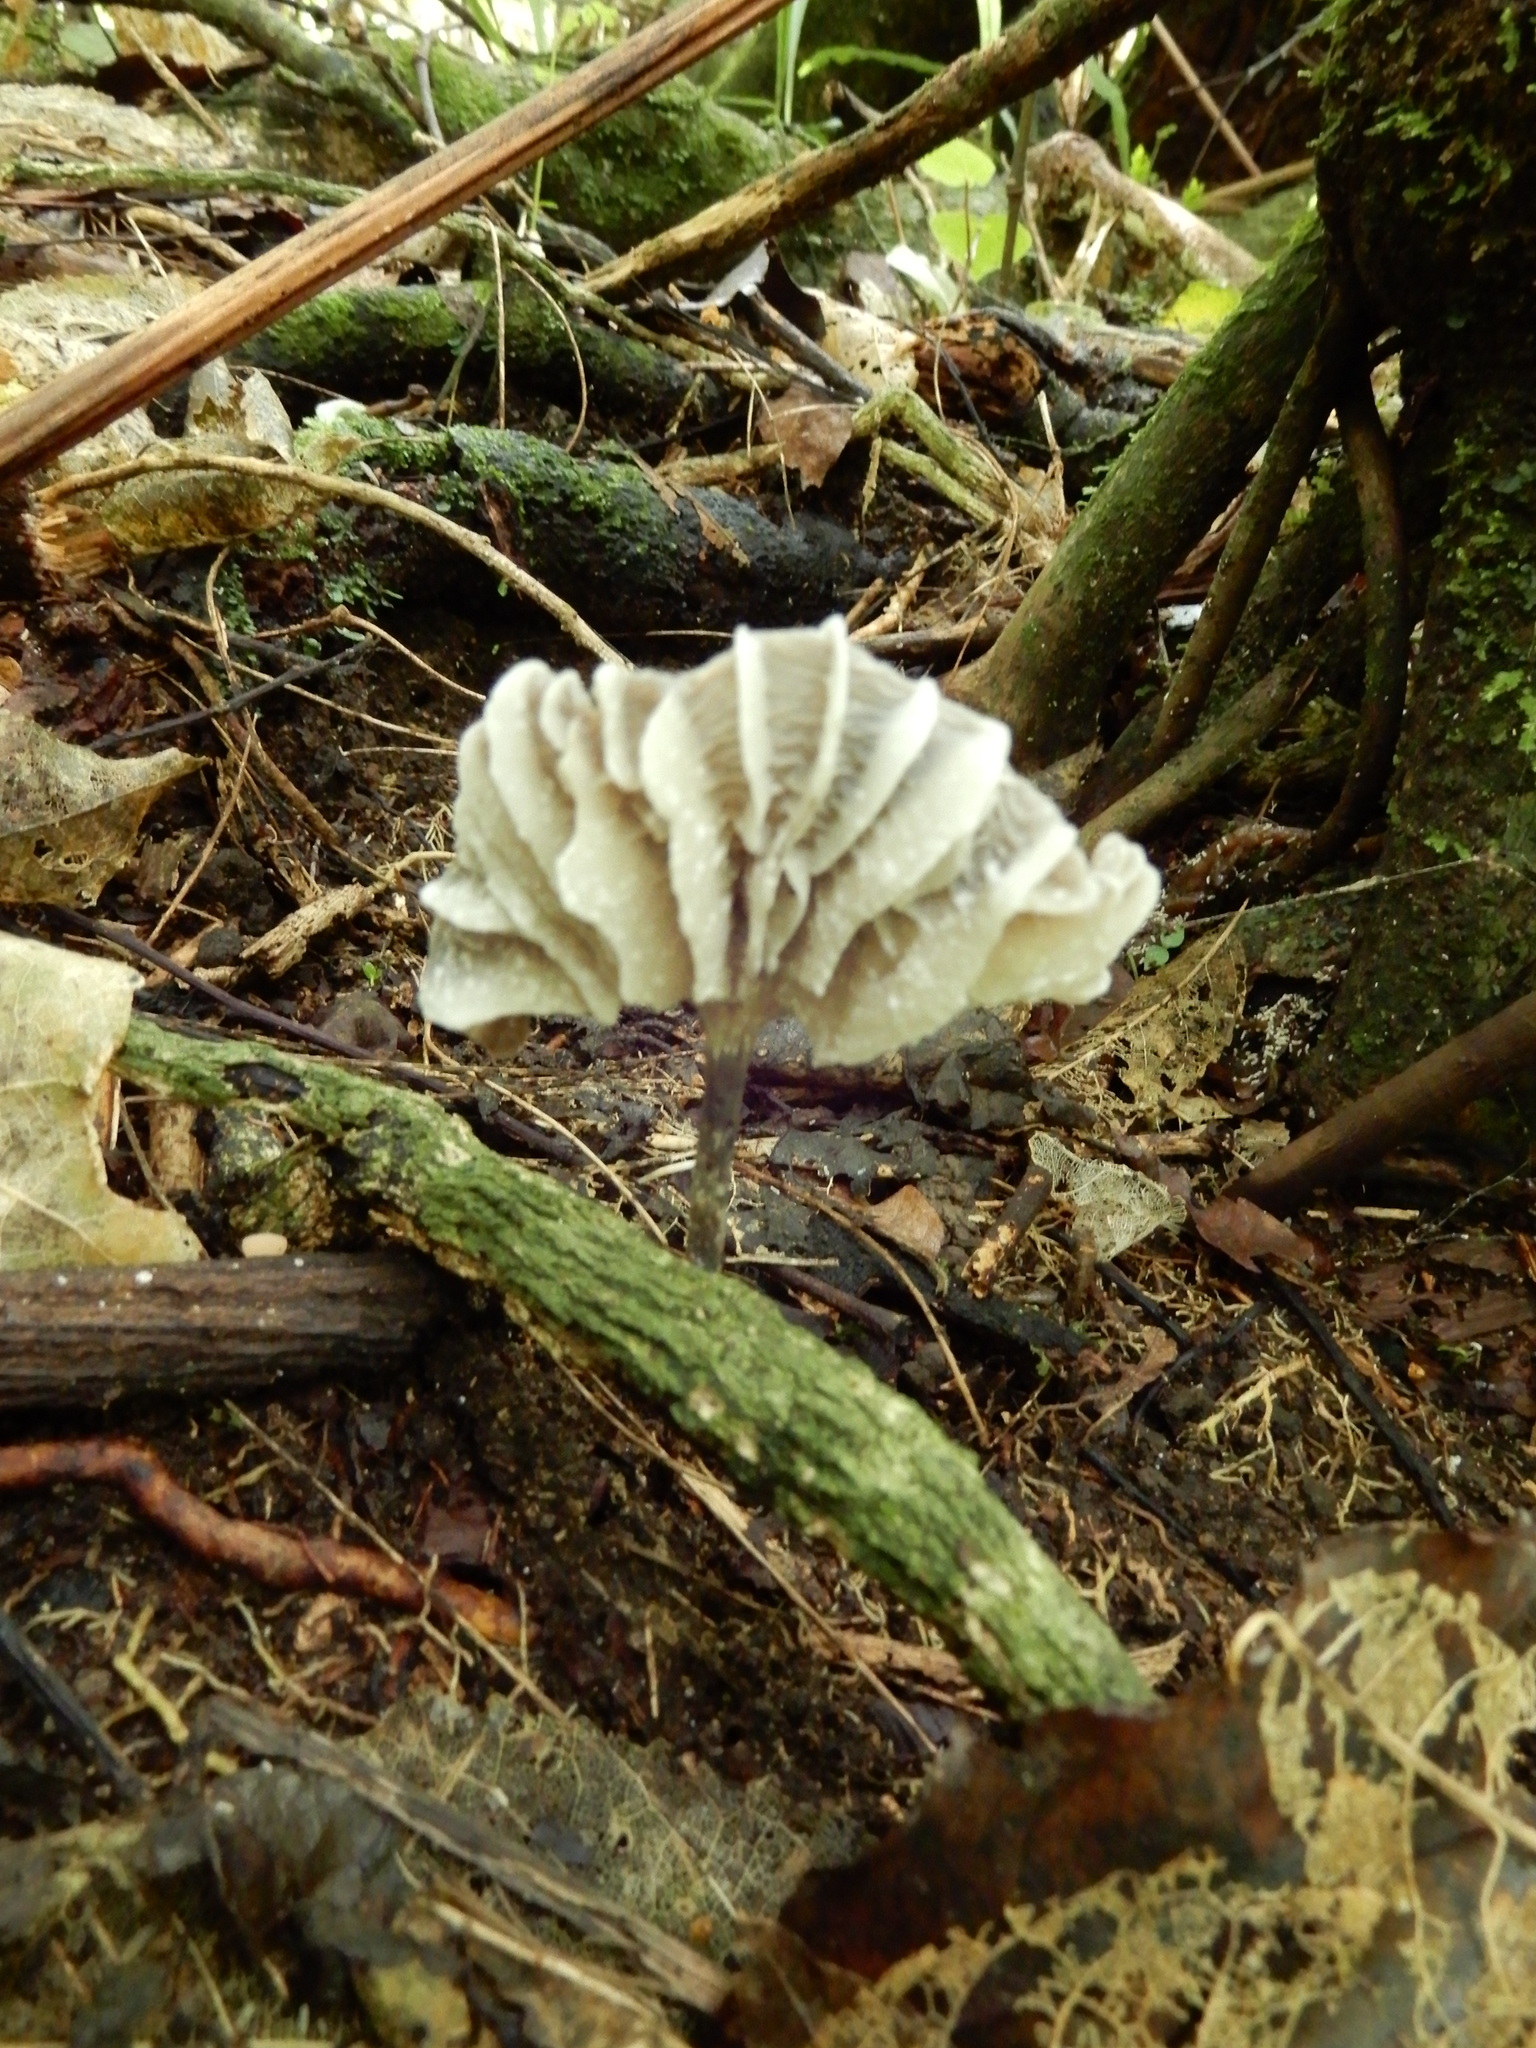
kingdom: Fungi
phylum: Basidiomycota
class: Agaricomycetes
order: Agaricales
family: Marasmiaceae
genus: Campanella
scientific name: Campanella
